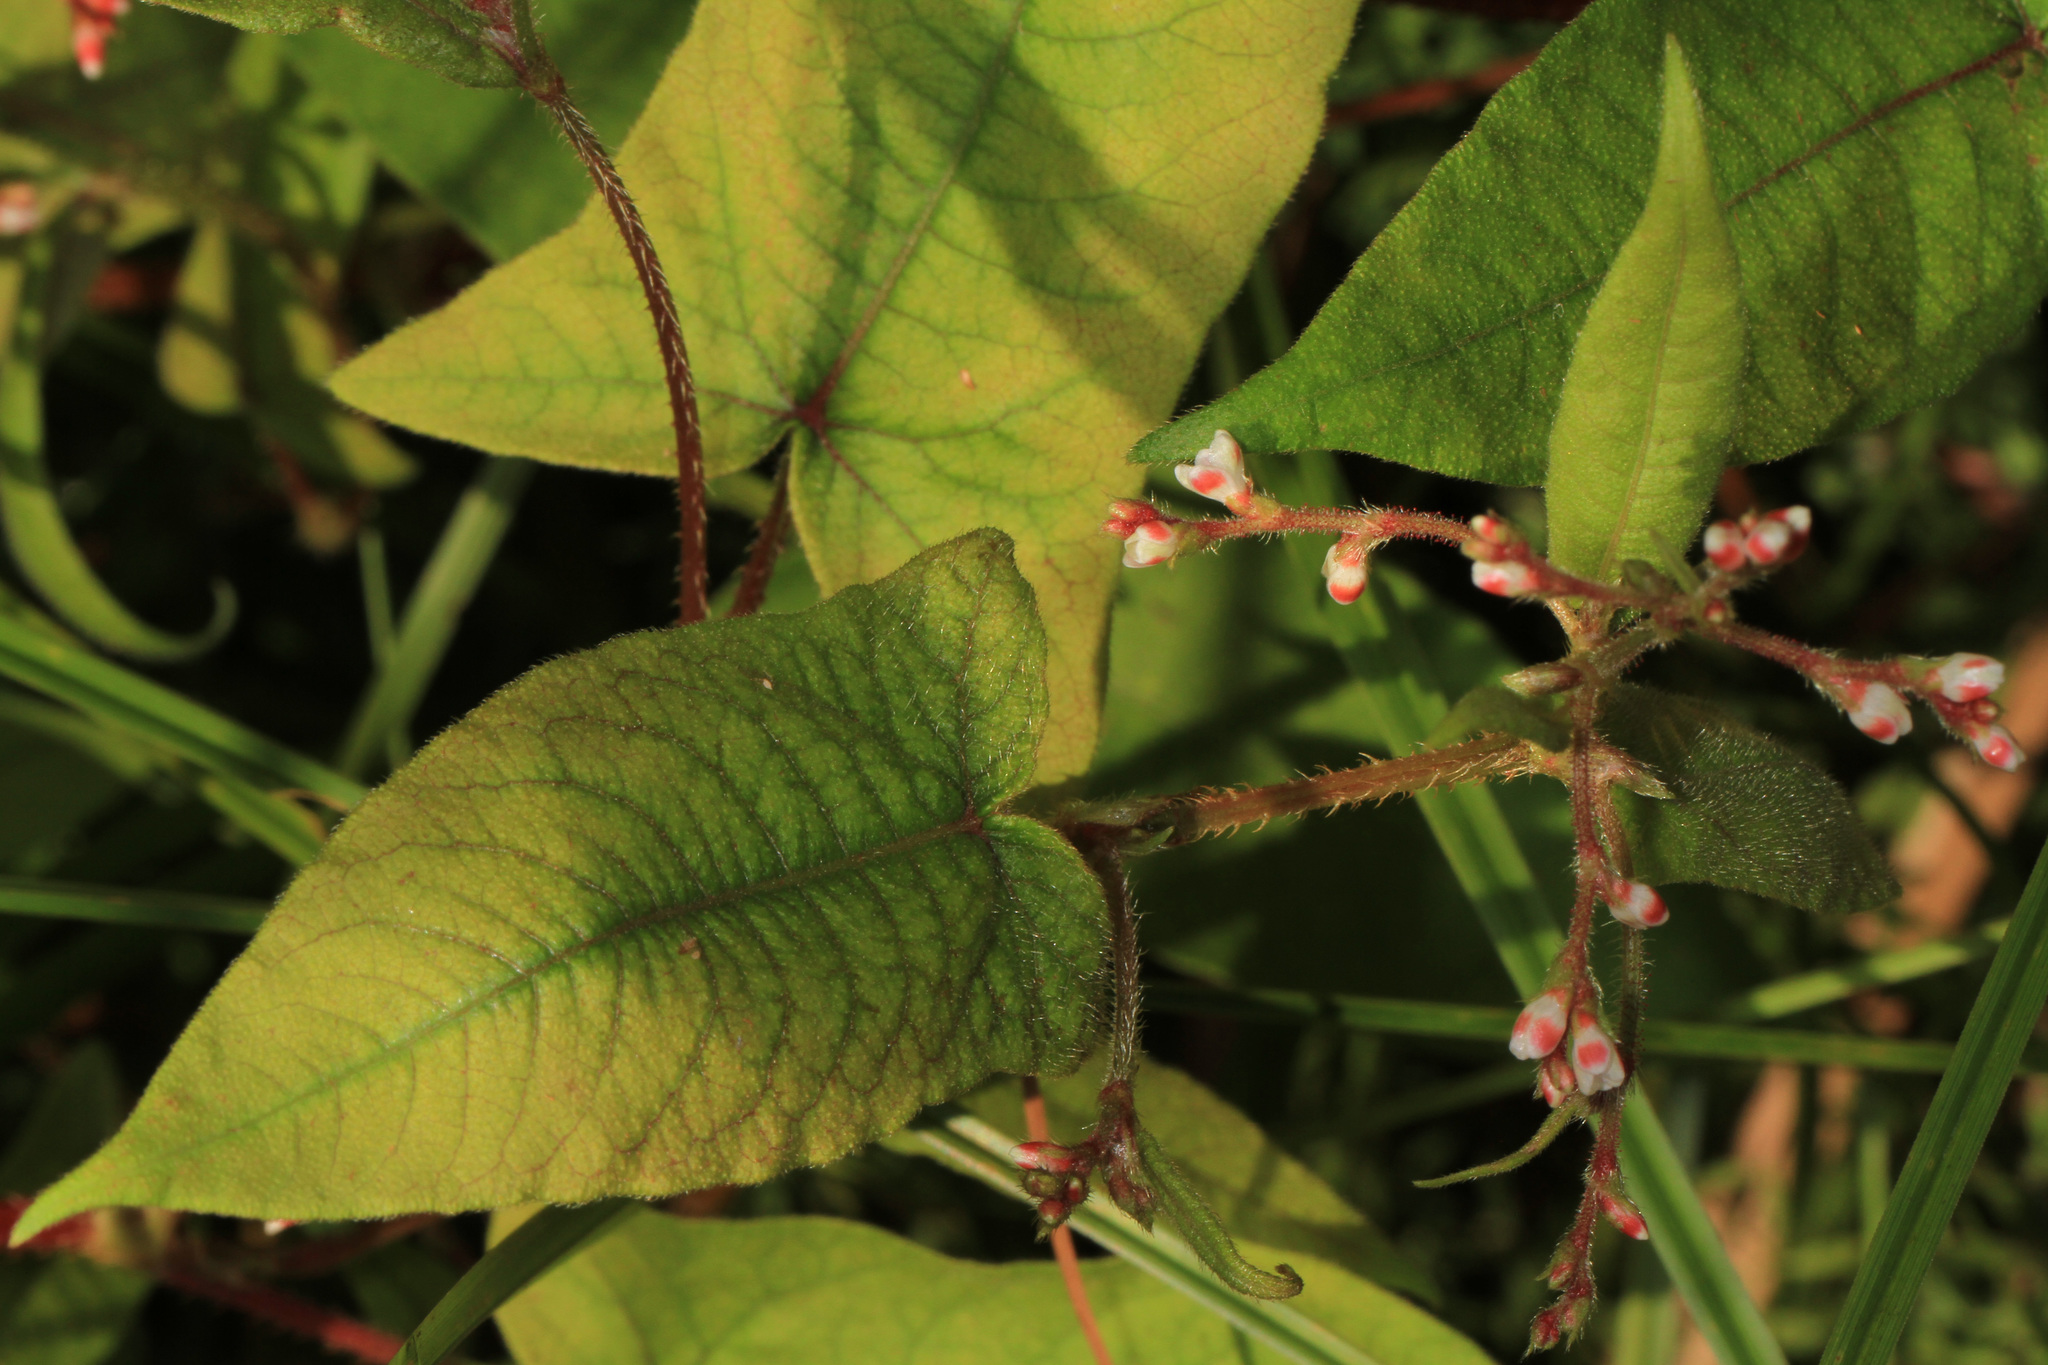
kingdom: Plantae
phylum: Tracheophyta
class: Magnoliopsida
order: Caryophyllales
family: Polygonaceae
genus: Persicaria
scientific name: Persicaria arifolia
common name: Halberd-leaved tear-thumb
